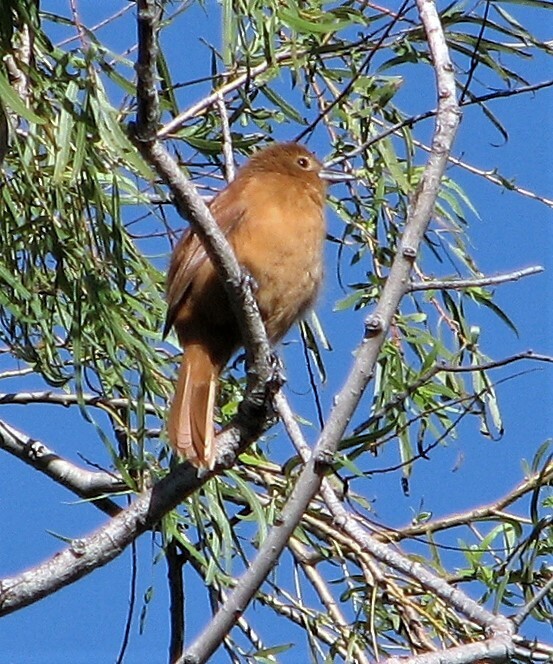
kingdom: Animalia
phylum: Chordata
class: Aves
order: Passeriformes
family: Thraupidae
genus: Tachyphonus
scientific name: Tachyphonus rufus
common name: White-lined tanager
